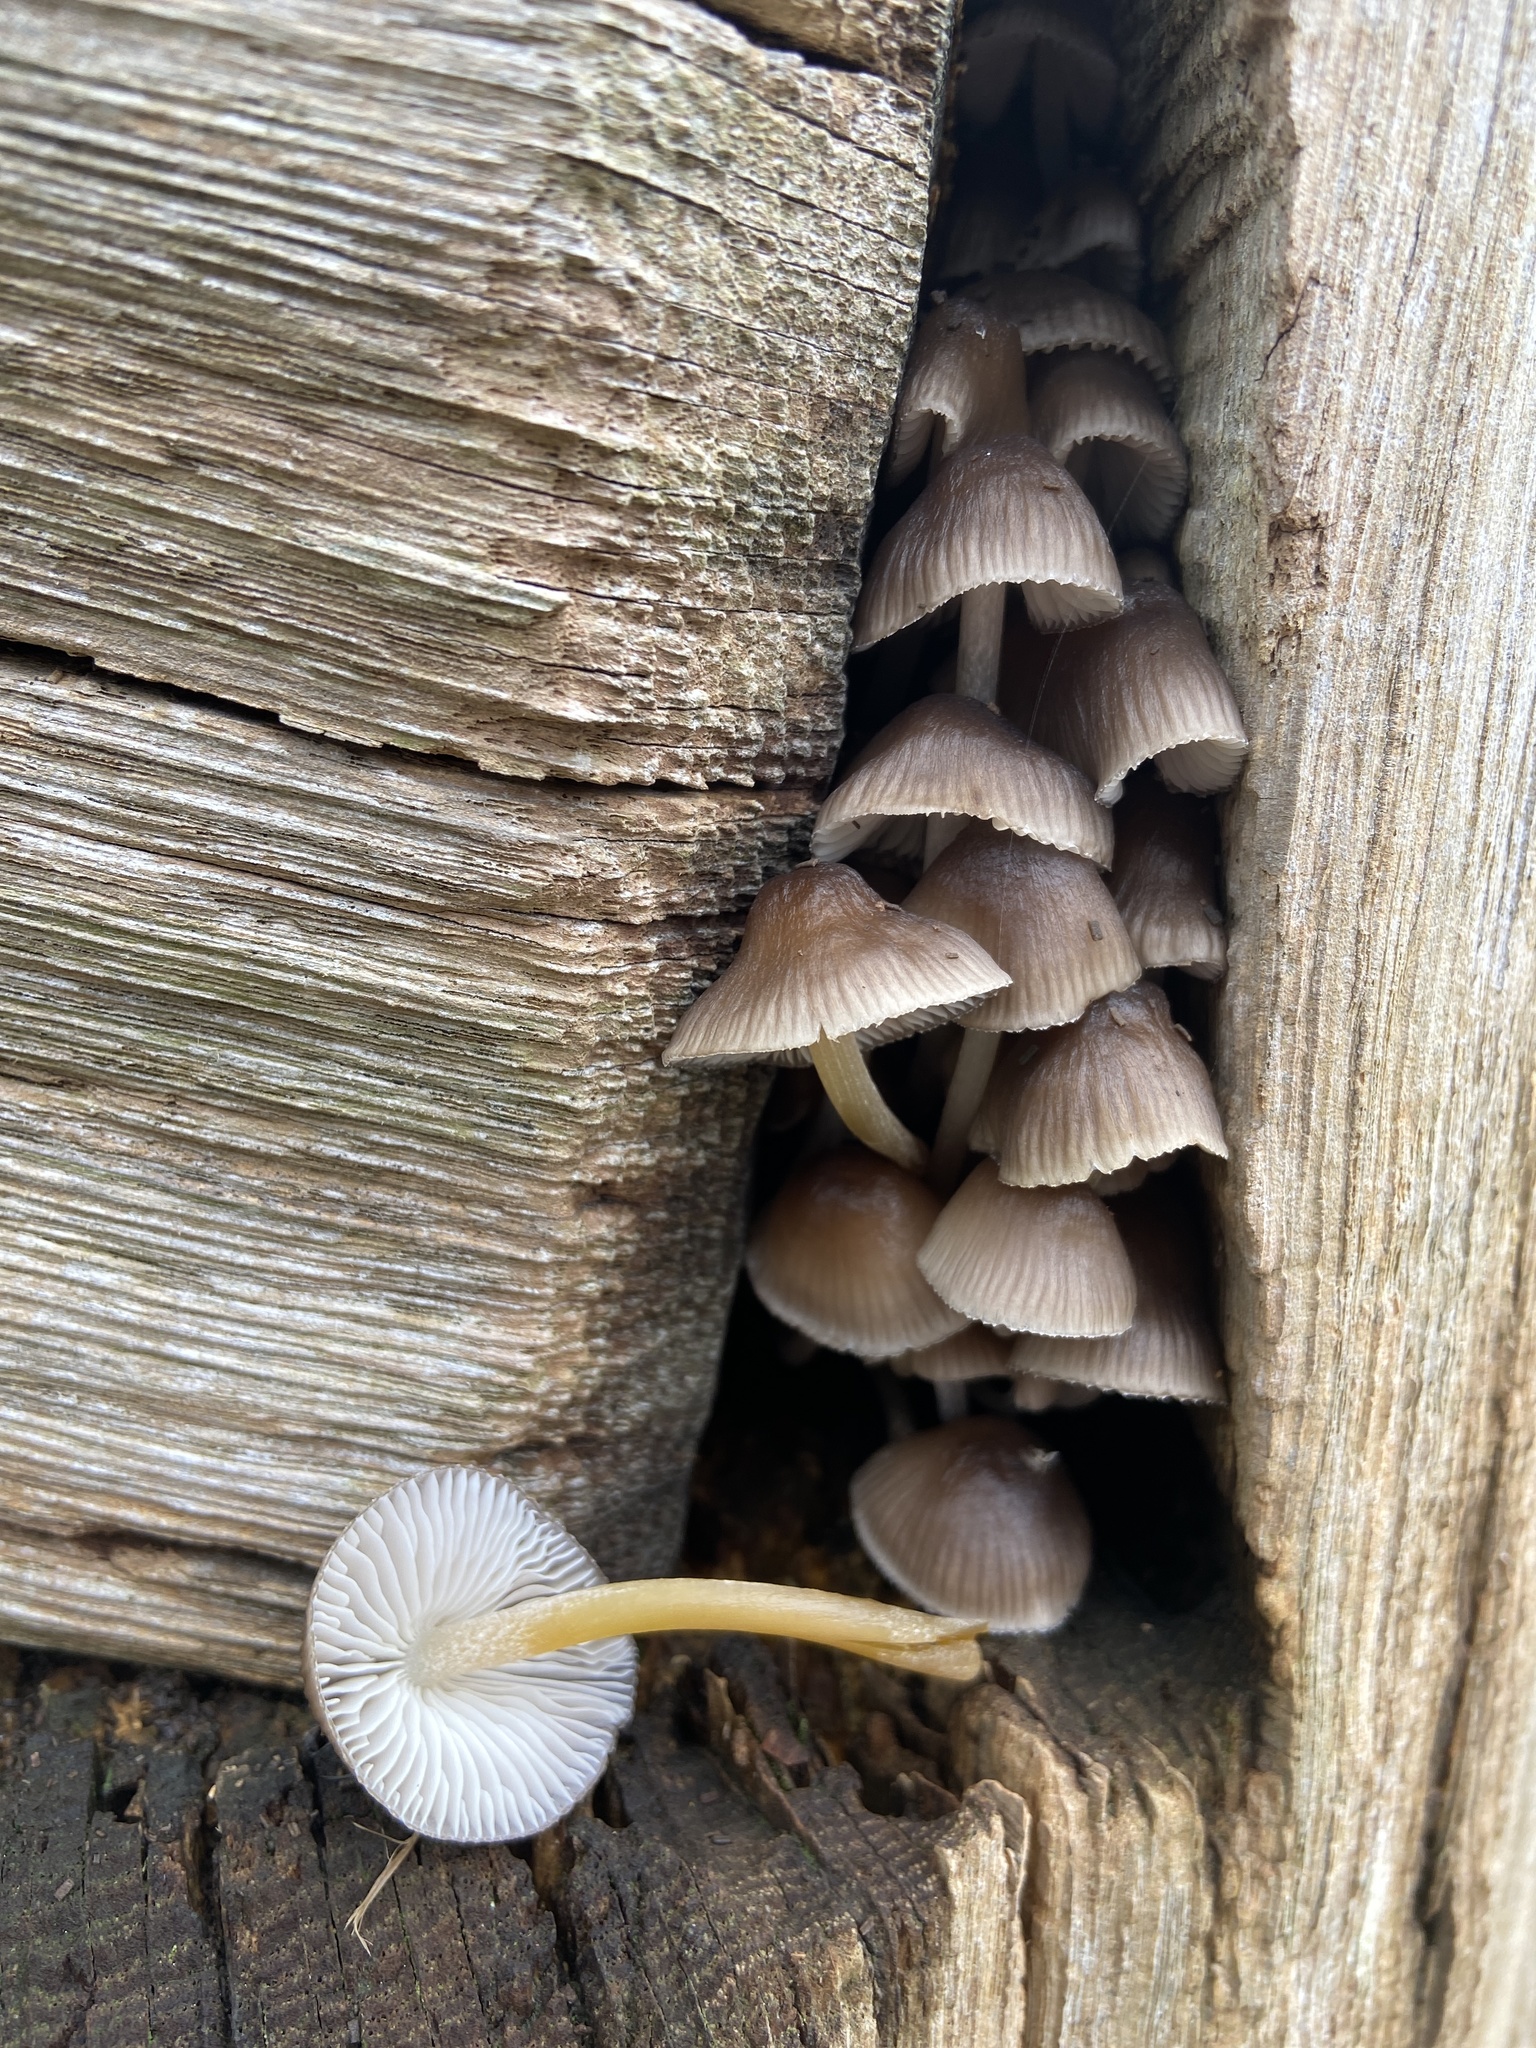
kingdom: Fungi
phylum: Basidiomycota
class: Agaricomycetes
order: Agaricales
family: Mycenaceae
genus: Mycena
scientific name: Mycena inclinata
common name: Clustered bonnet
